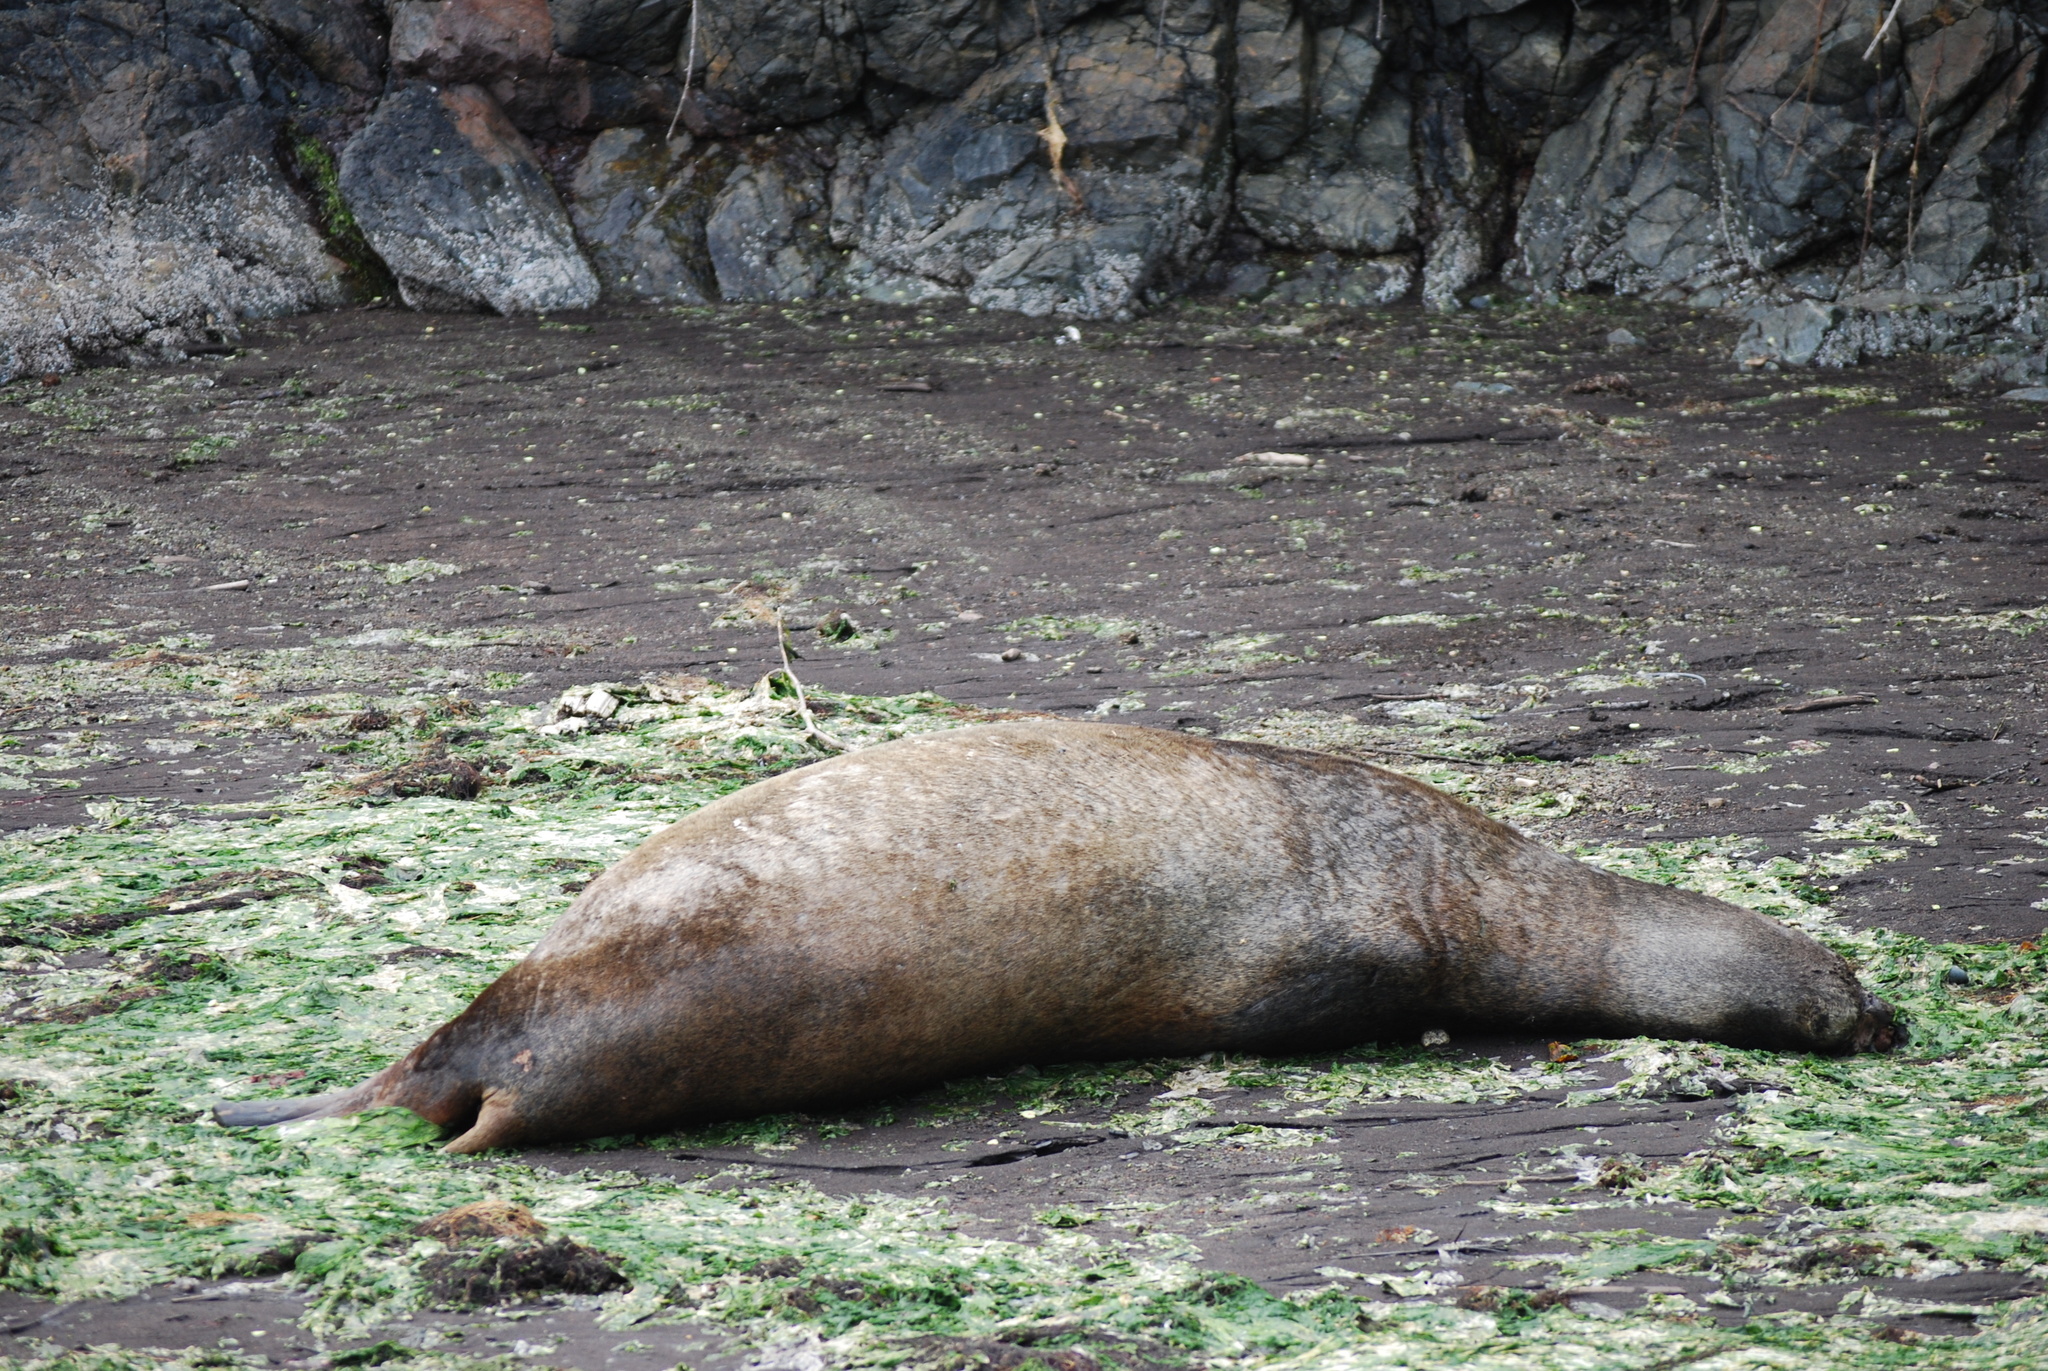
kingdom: Animalia
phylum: Chordata
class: Mammalia
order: Carnivora
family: Otariidae
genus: Eumetopias
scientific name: Eumetopias jubatus
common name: Steller sea lion
